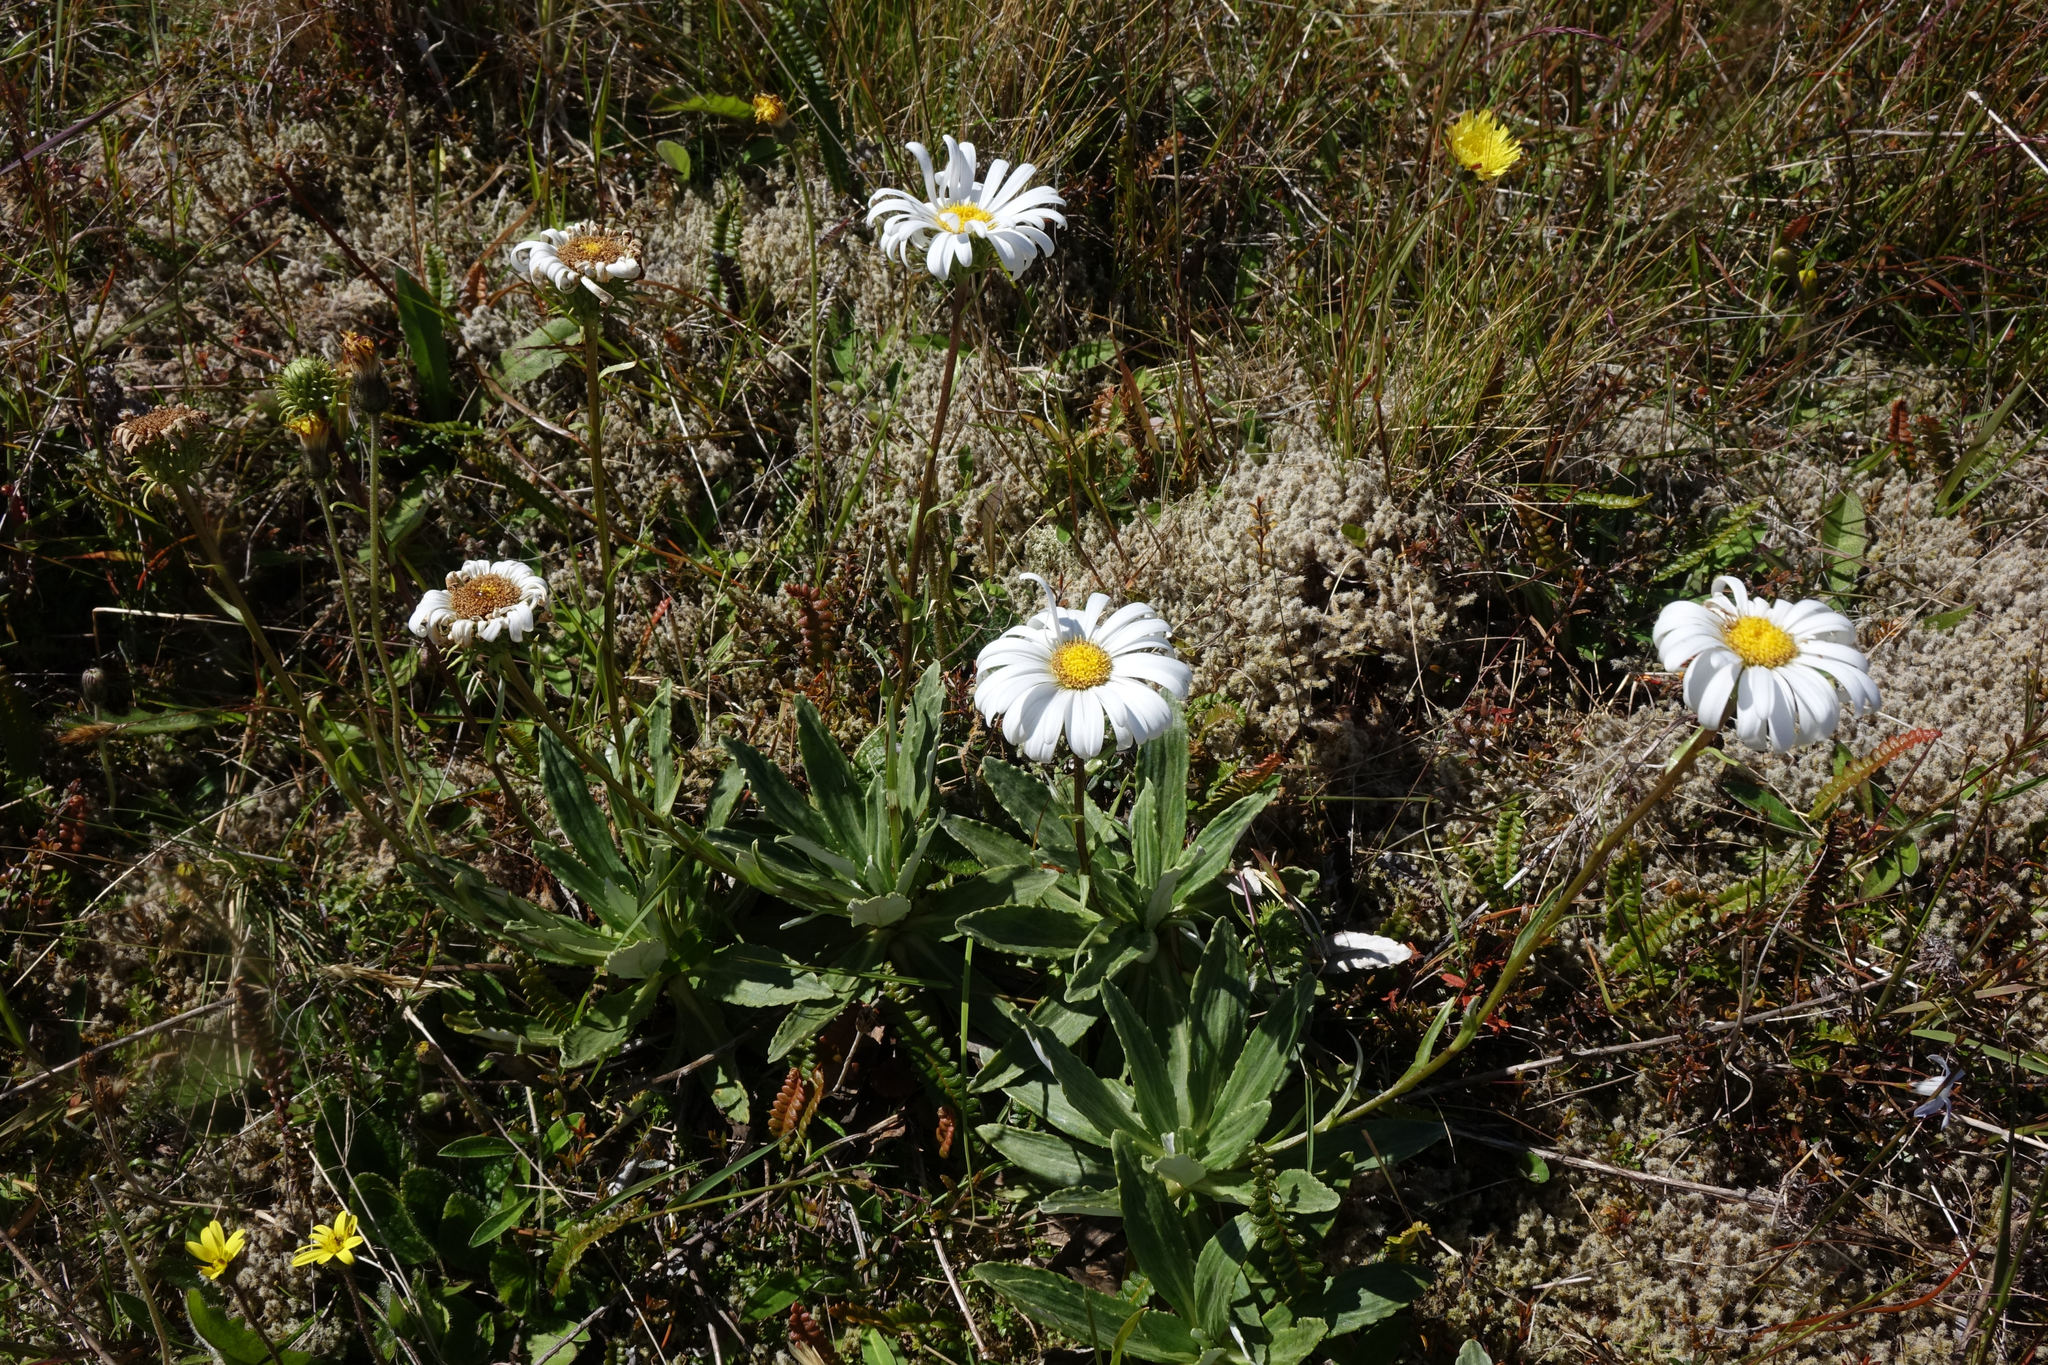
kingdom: Plantae
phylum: Tracheophyta
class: Magnoliopsida
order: Asterales
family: Asteraceae
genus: Celmisia
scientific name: Celmisia densiflora
